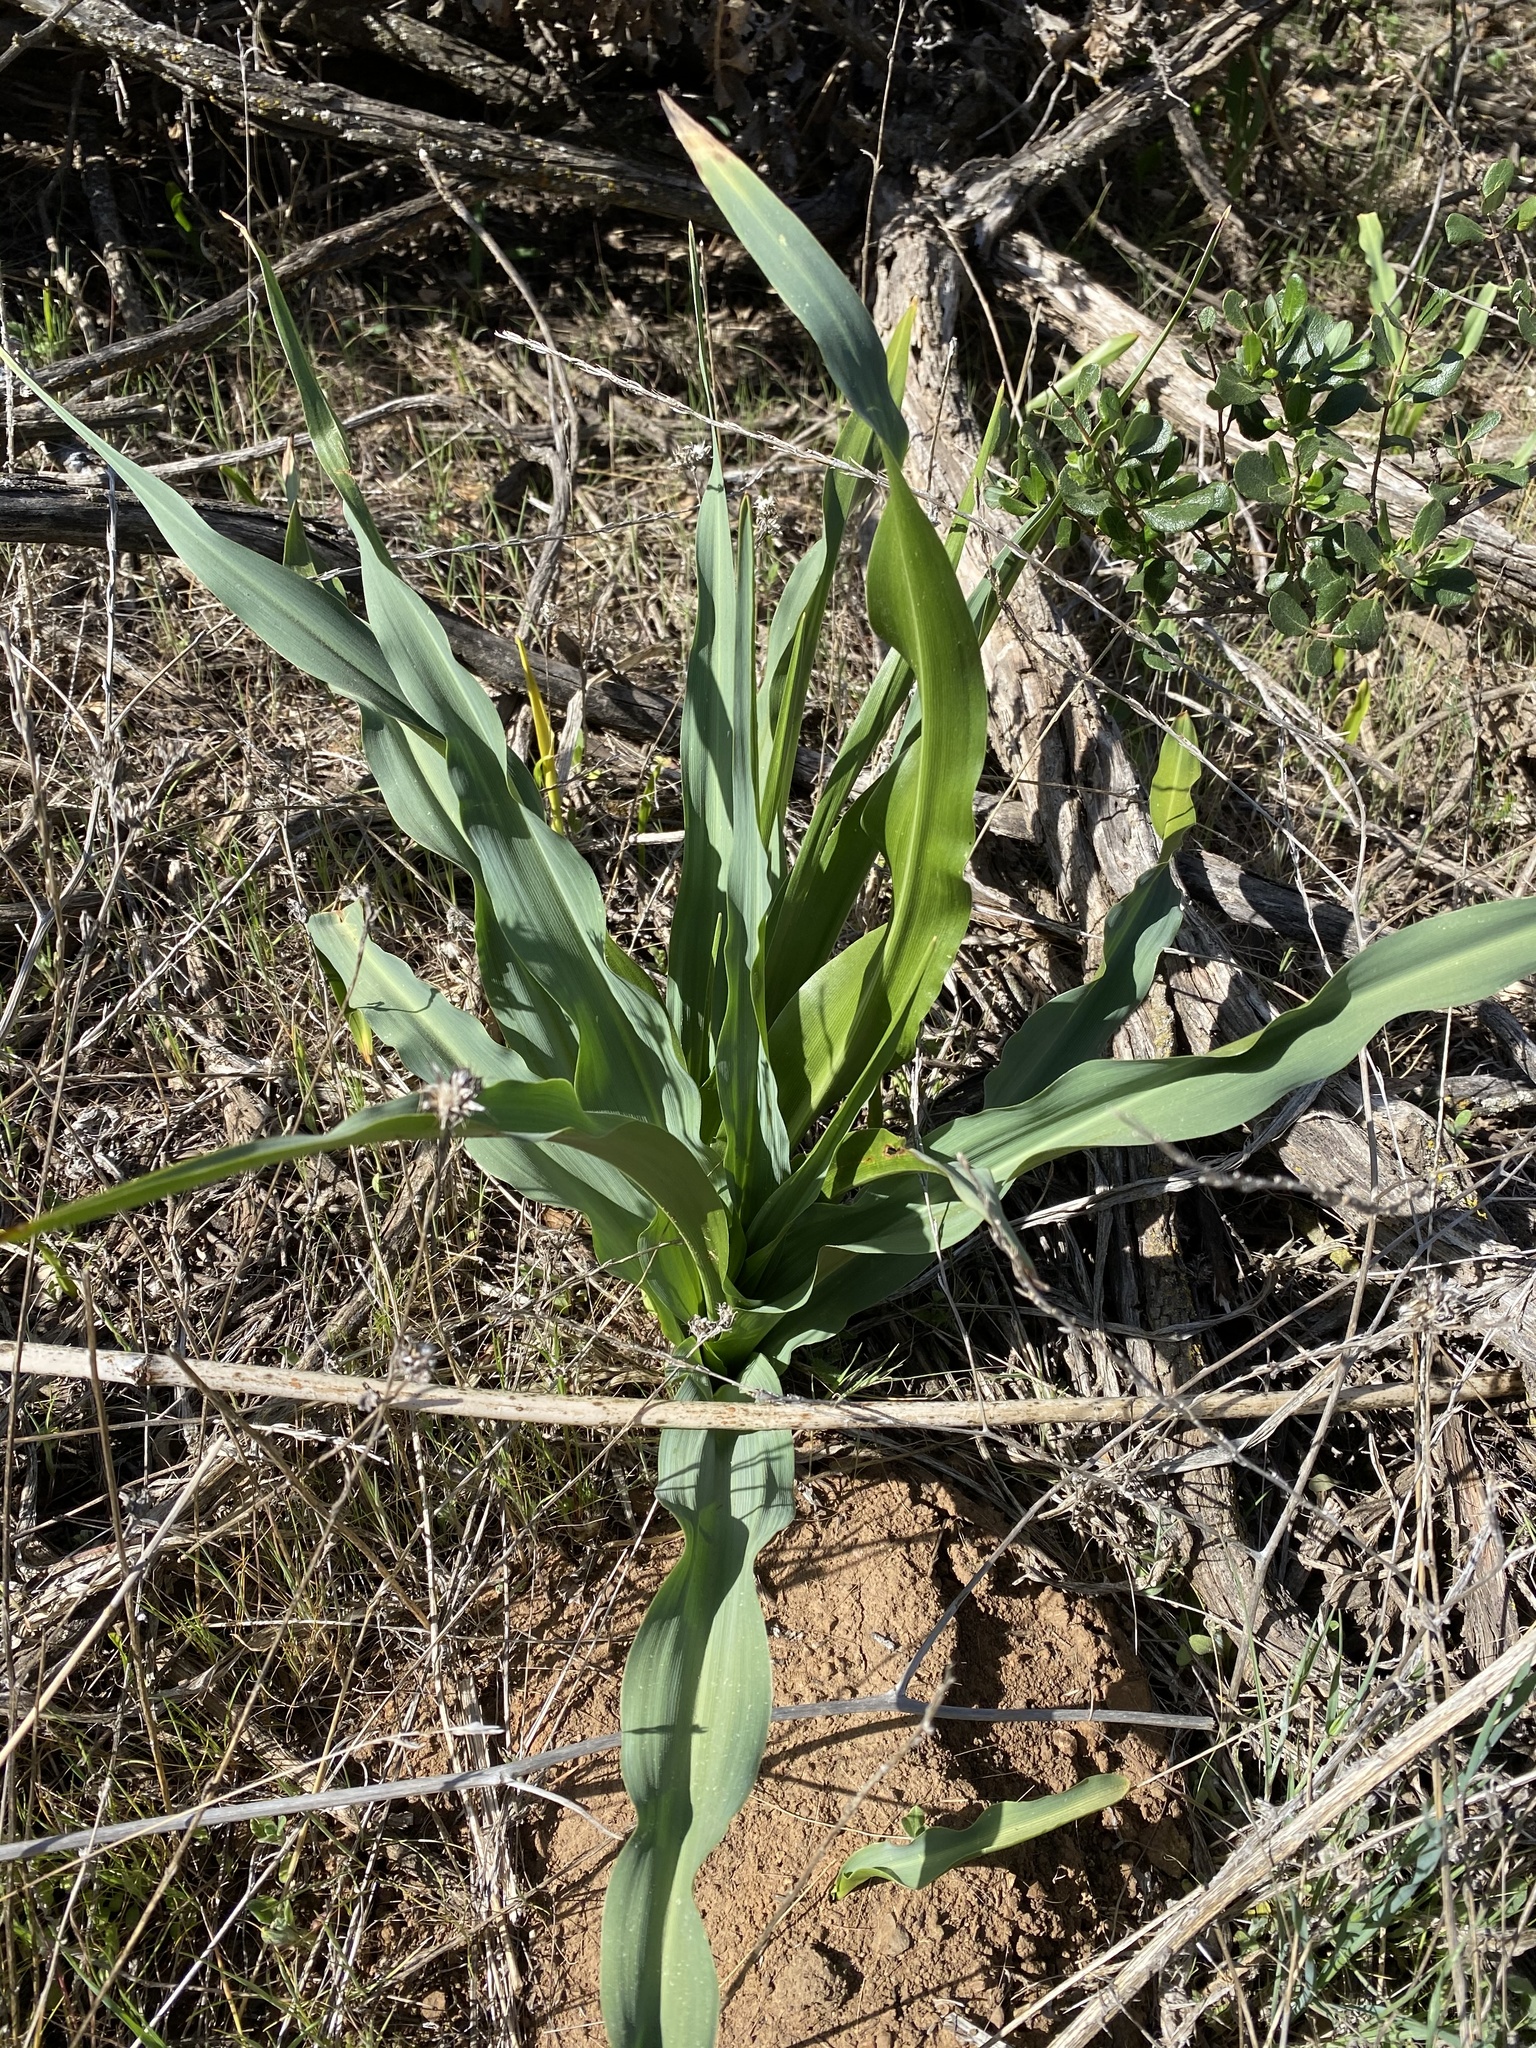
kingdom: Plantae
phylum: Tracheophyta
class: Liliopsida
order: Asparagales
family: Asparagaceae
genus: Chlorogalum
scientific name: Chlorogalum pomeridianum
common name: Amole
